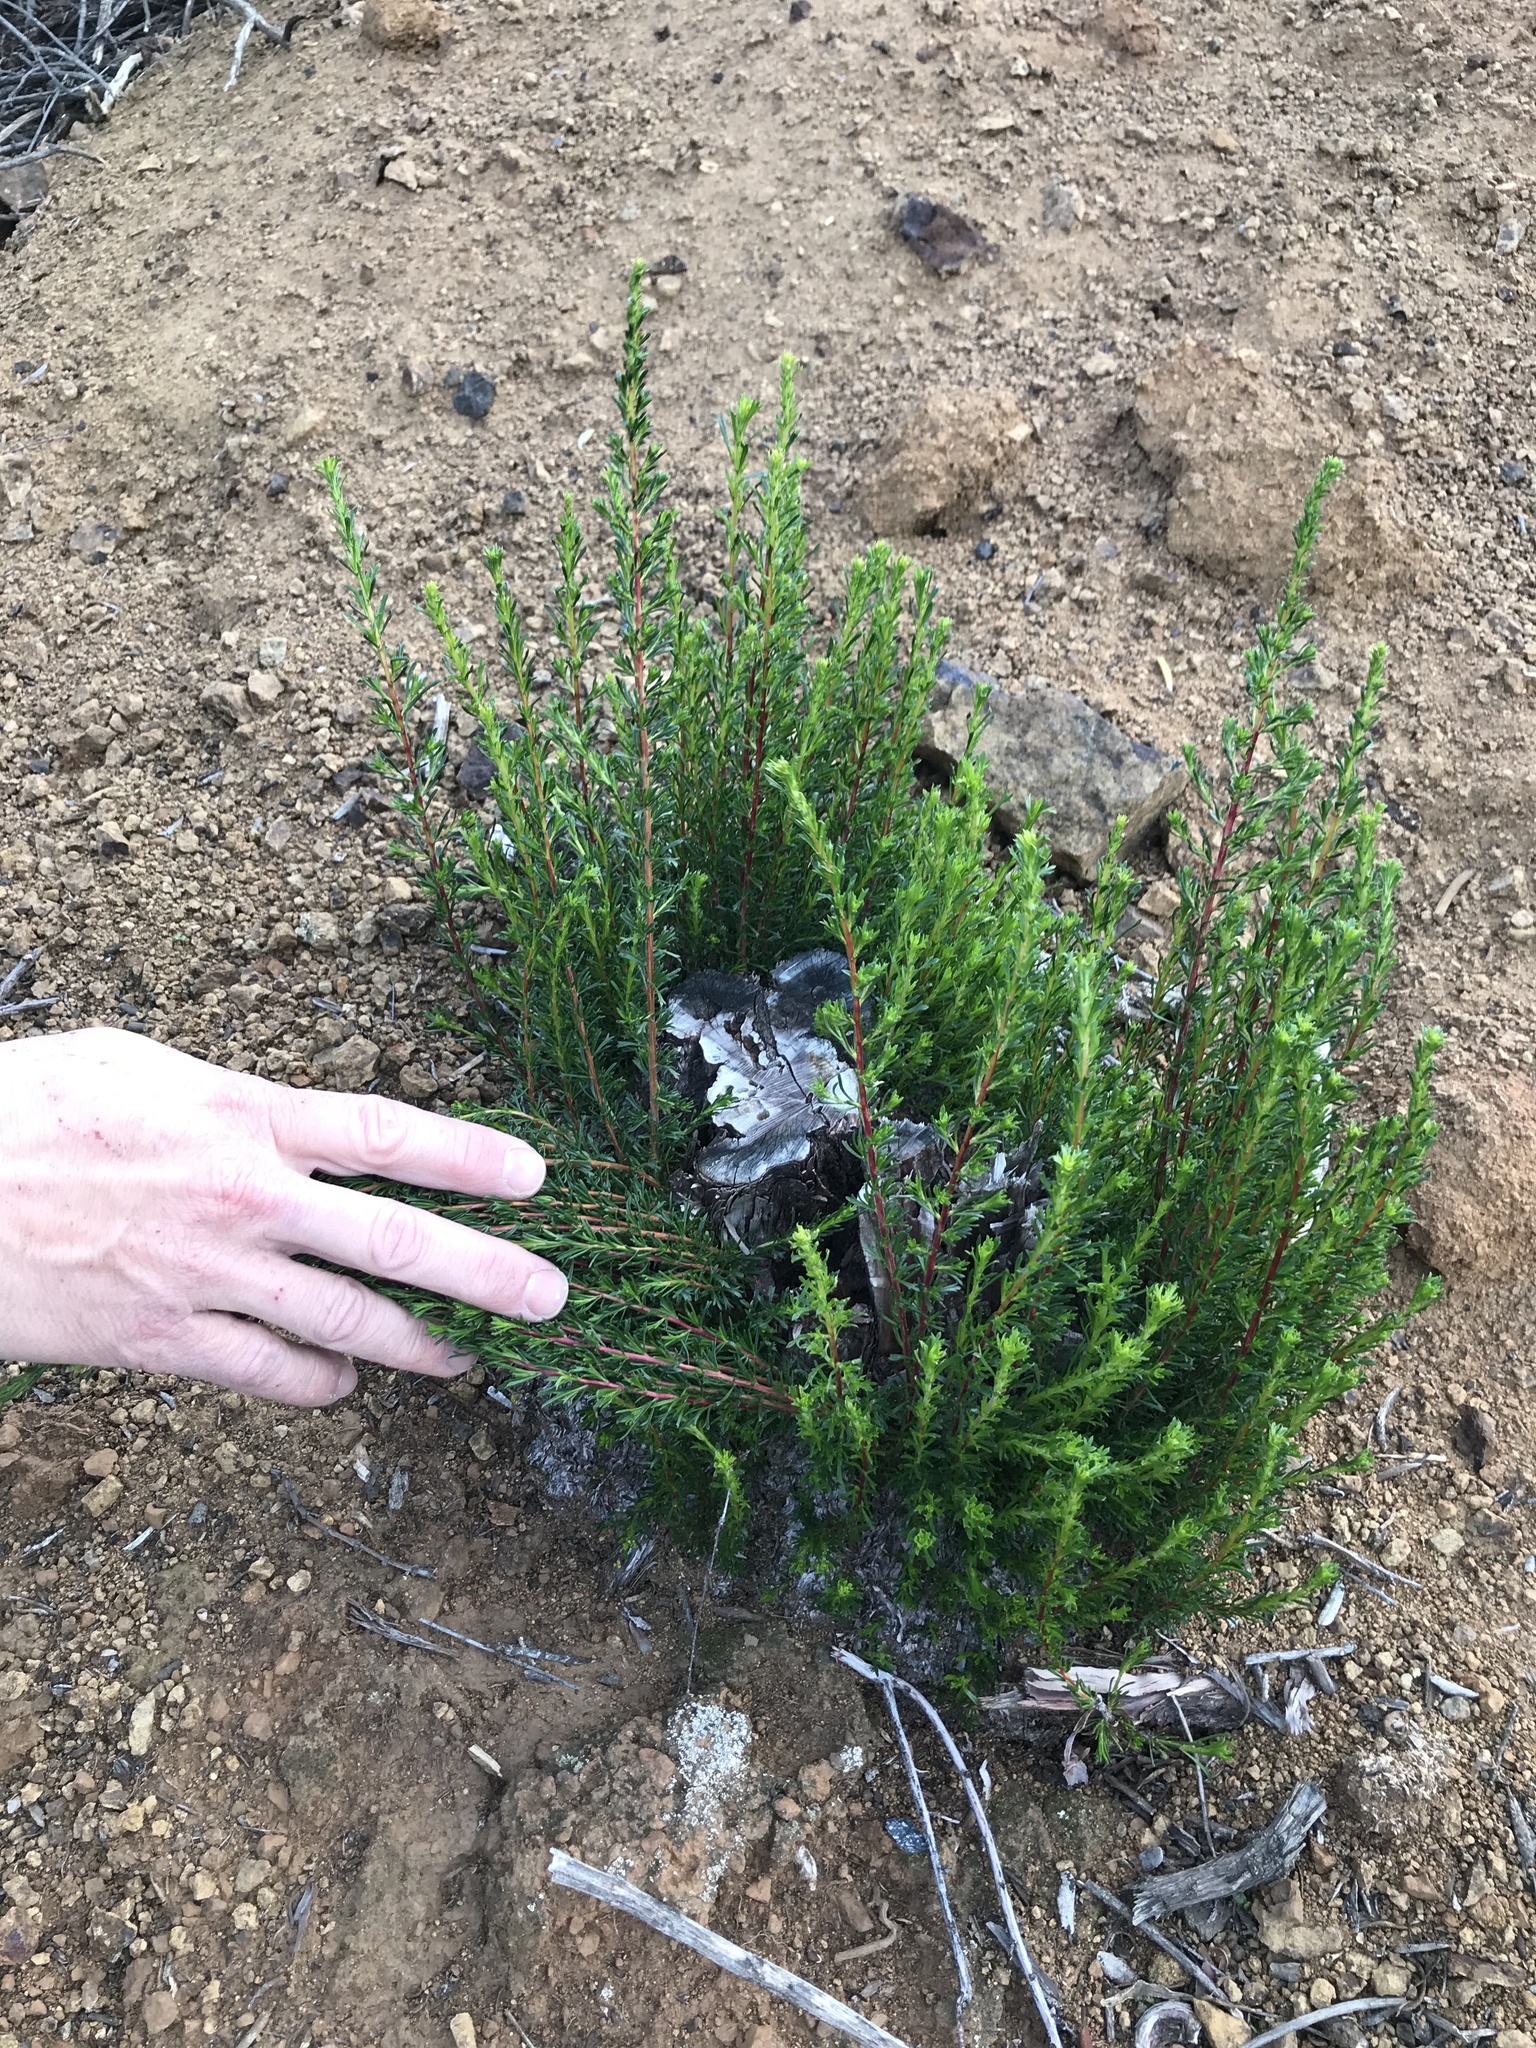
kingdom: Plantae
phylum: Tracheophyta
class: Magnoliopsida
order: Rosales
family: Rosaceae
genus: Adenostoma
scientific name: Adenostoma fasciculatum
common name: Chamise
